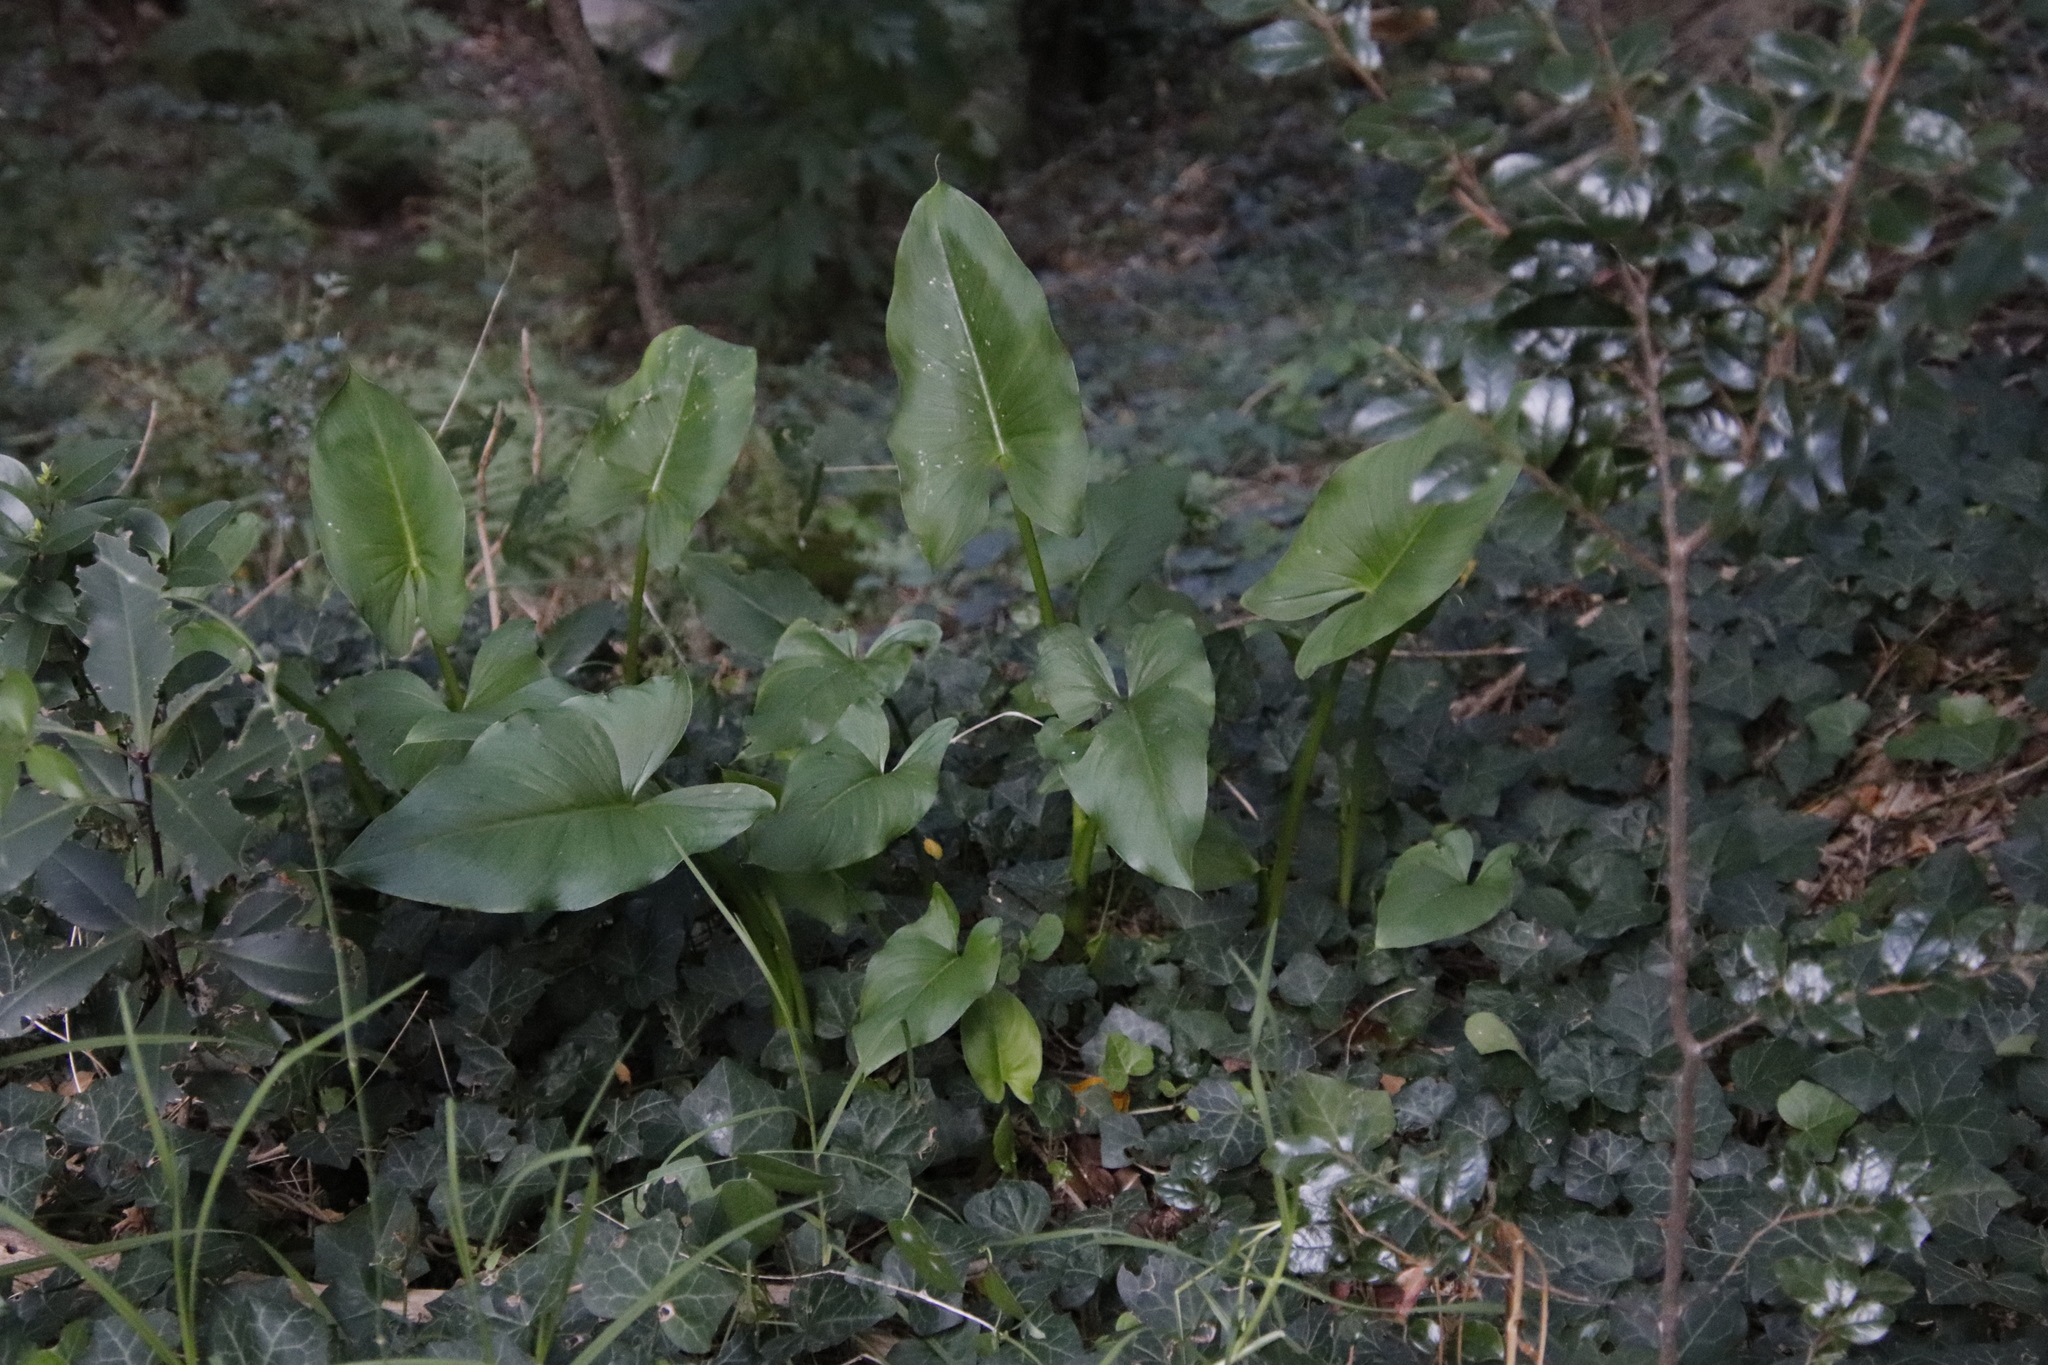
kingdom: Plantae
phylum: Tracheophyta
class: Liliopsida
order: Alismatales
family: Araceae
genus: Zantedeschia
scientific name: Zantedeschia aethiopica
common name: Altar-lily
